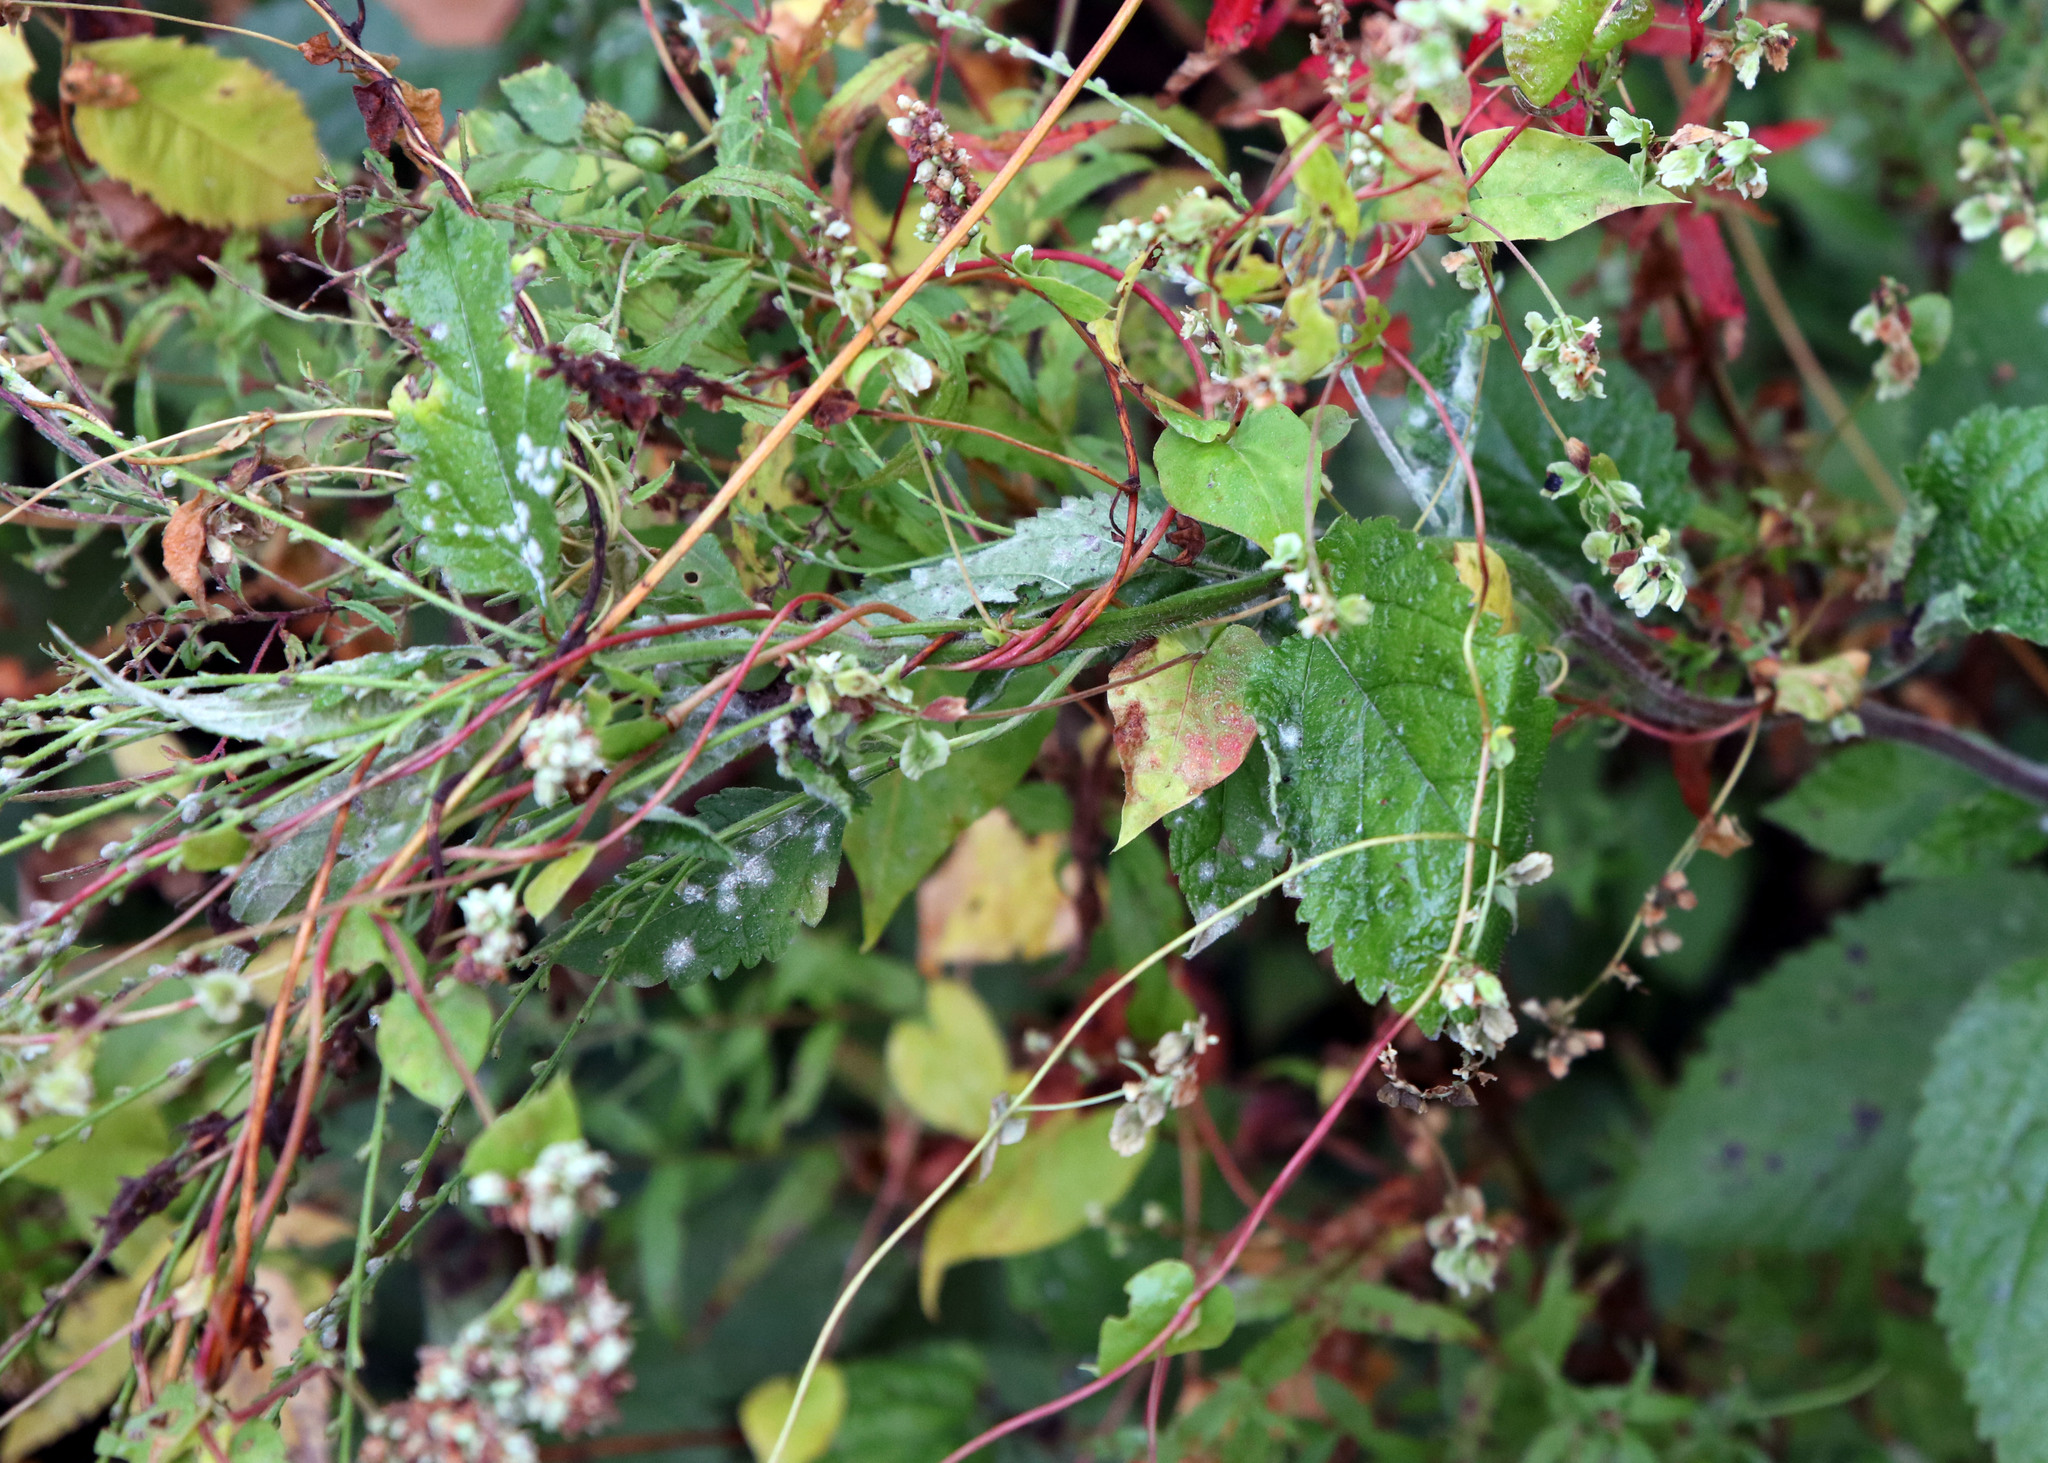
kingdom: Plantae
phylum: Tracheophyta
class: Magnoliopsida
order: Caryophyllales
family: Polygonaceae
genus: Fallopia
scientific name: Fallopia scandens
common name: Climbing false buckwheat
